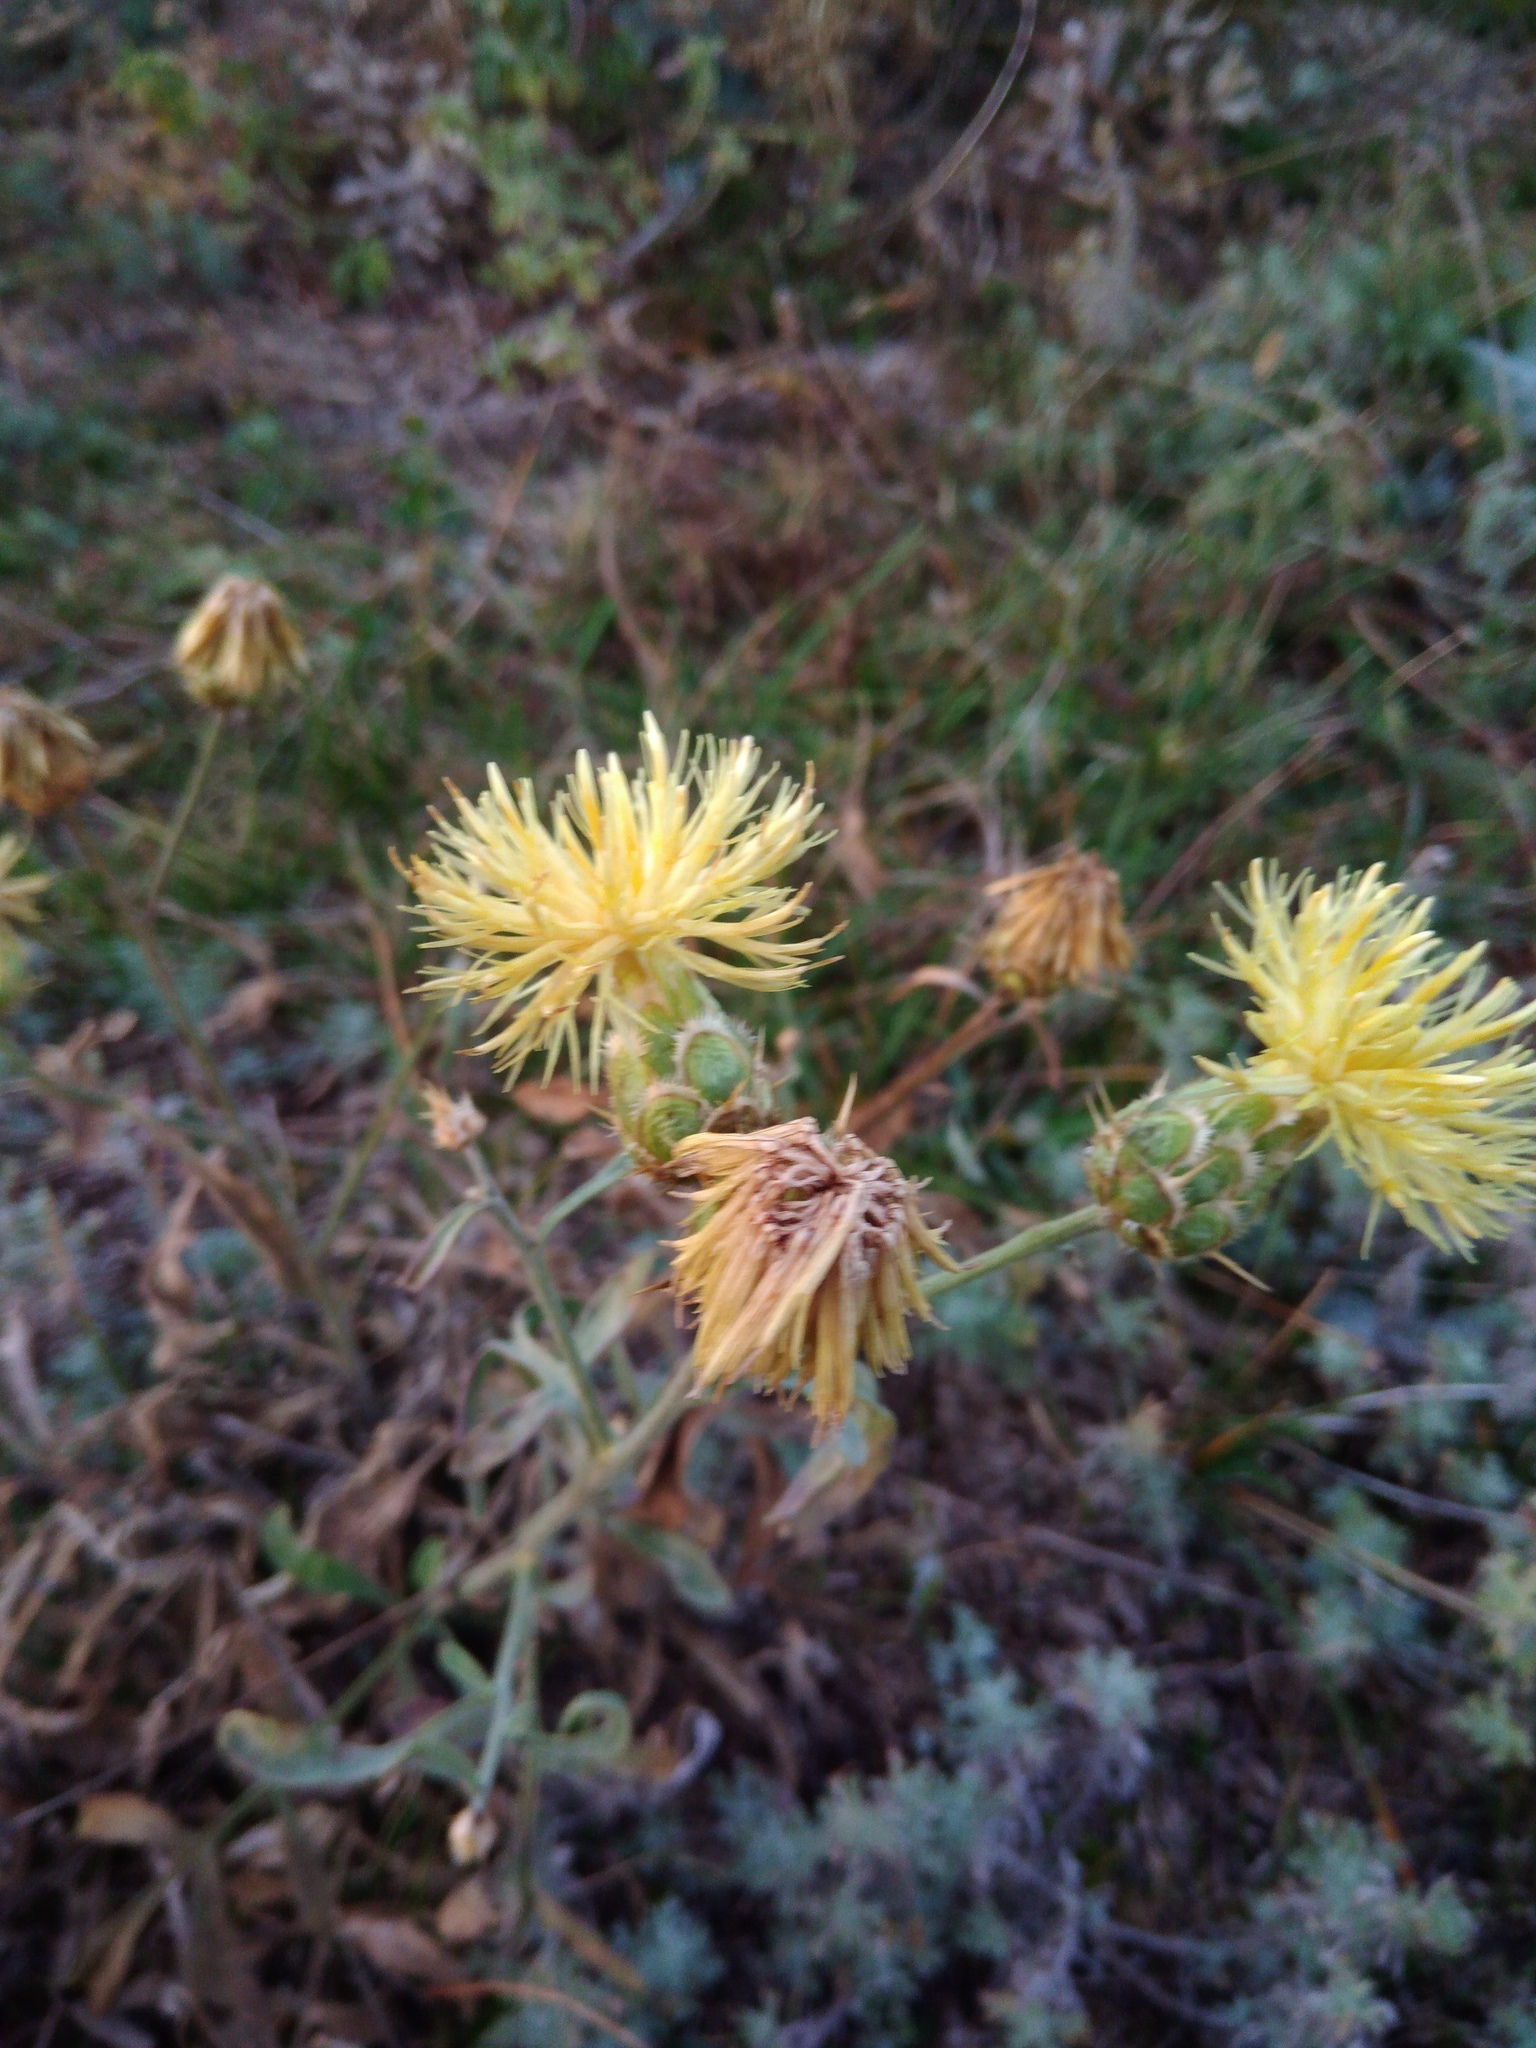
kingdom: Plantae
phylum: Tracheophyta
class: Magnoliopsida
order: Asterales
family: Asteraceae
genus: Centaurea
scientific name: Centaurea salonitana
